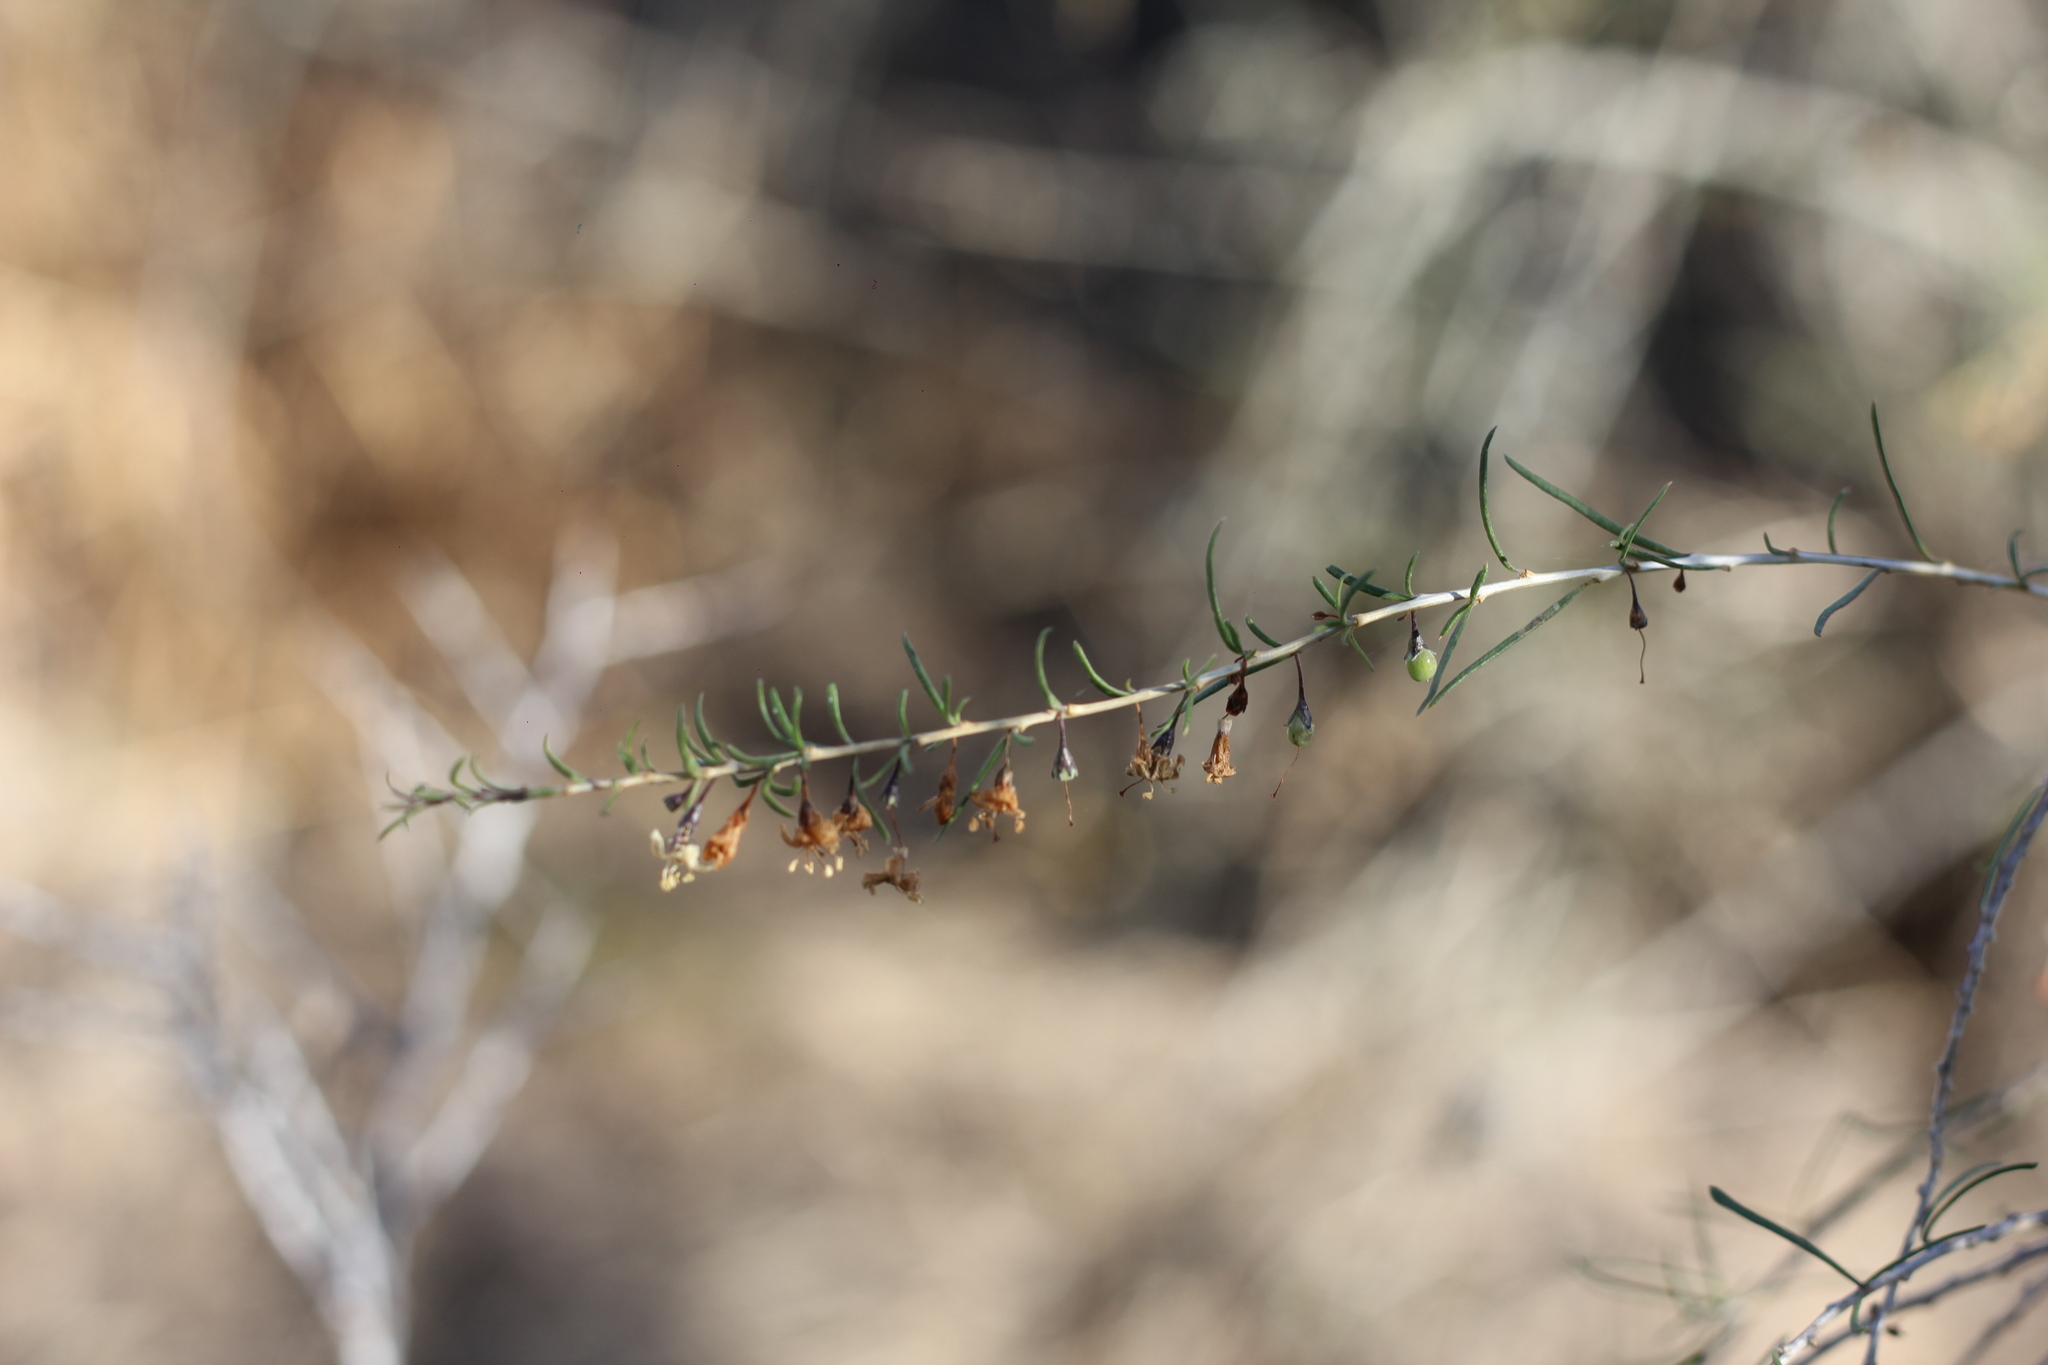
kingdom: Plantae
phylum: Tracheophyta
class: Magnoliopsida
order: Solanales
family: Solanaceae
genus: Lycium
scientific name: Lycium chilense
